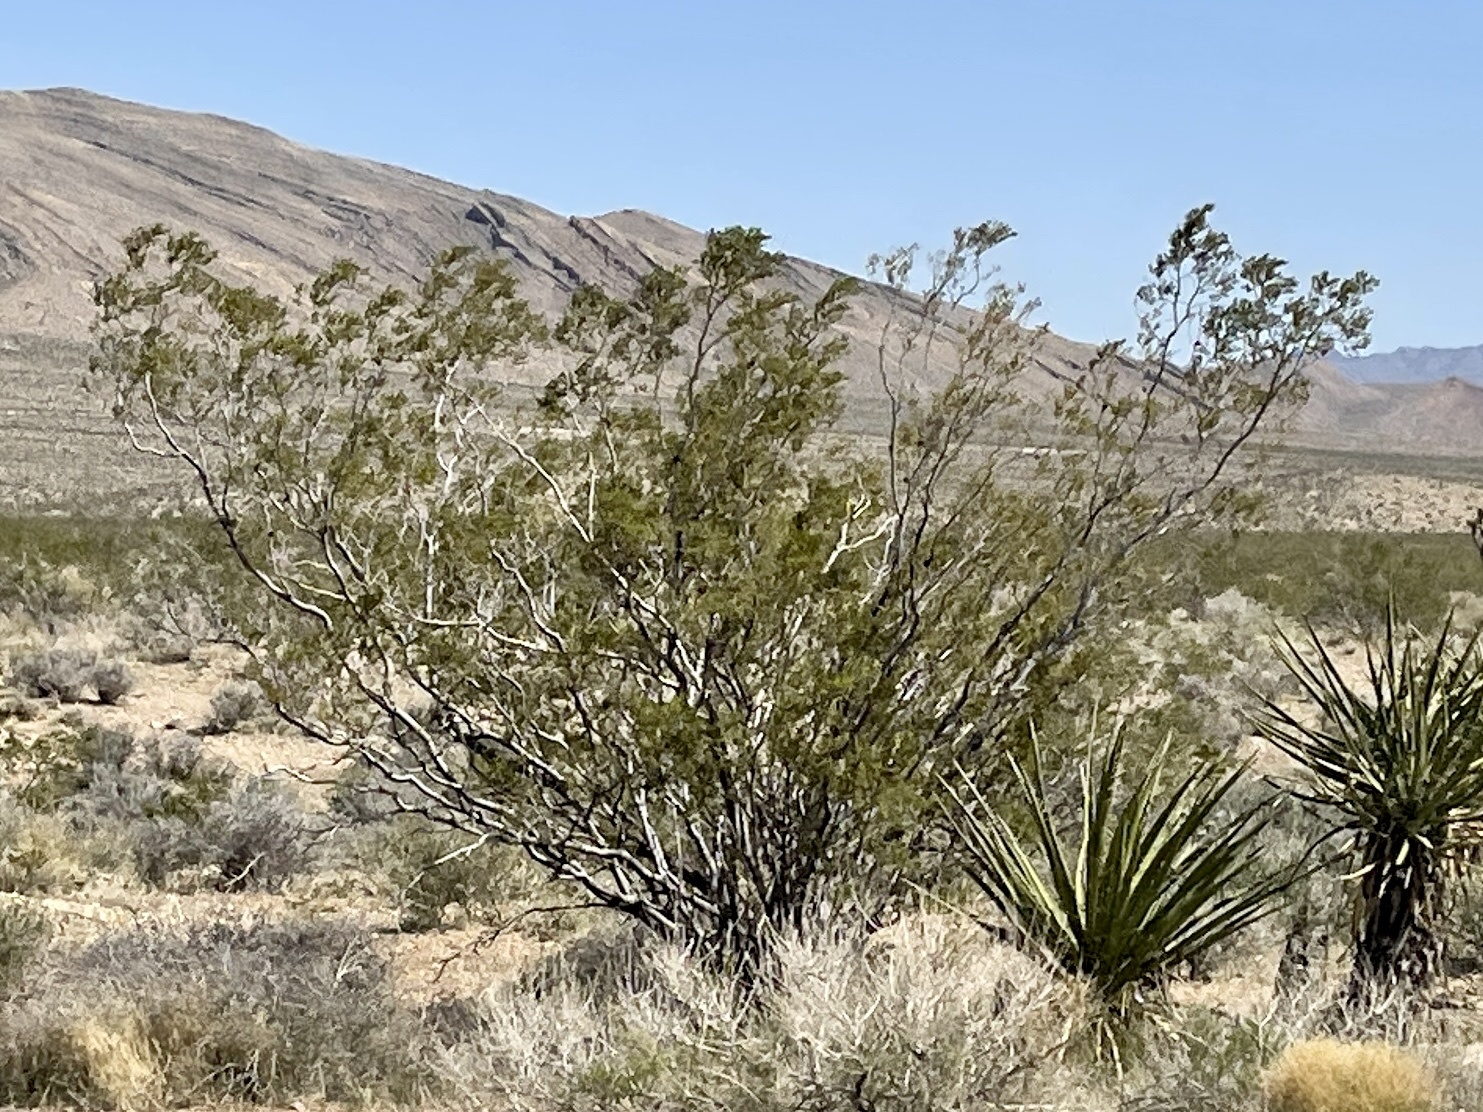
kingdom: Plantae
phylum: Tracheophyta
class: Magnoliopsida
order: Zygophyllales
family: Zygophyllaceae
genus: Larrea
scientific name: Larrea tridentata
